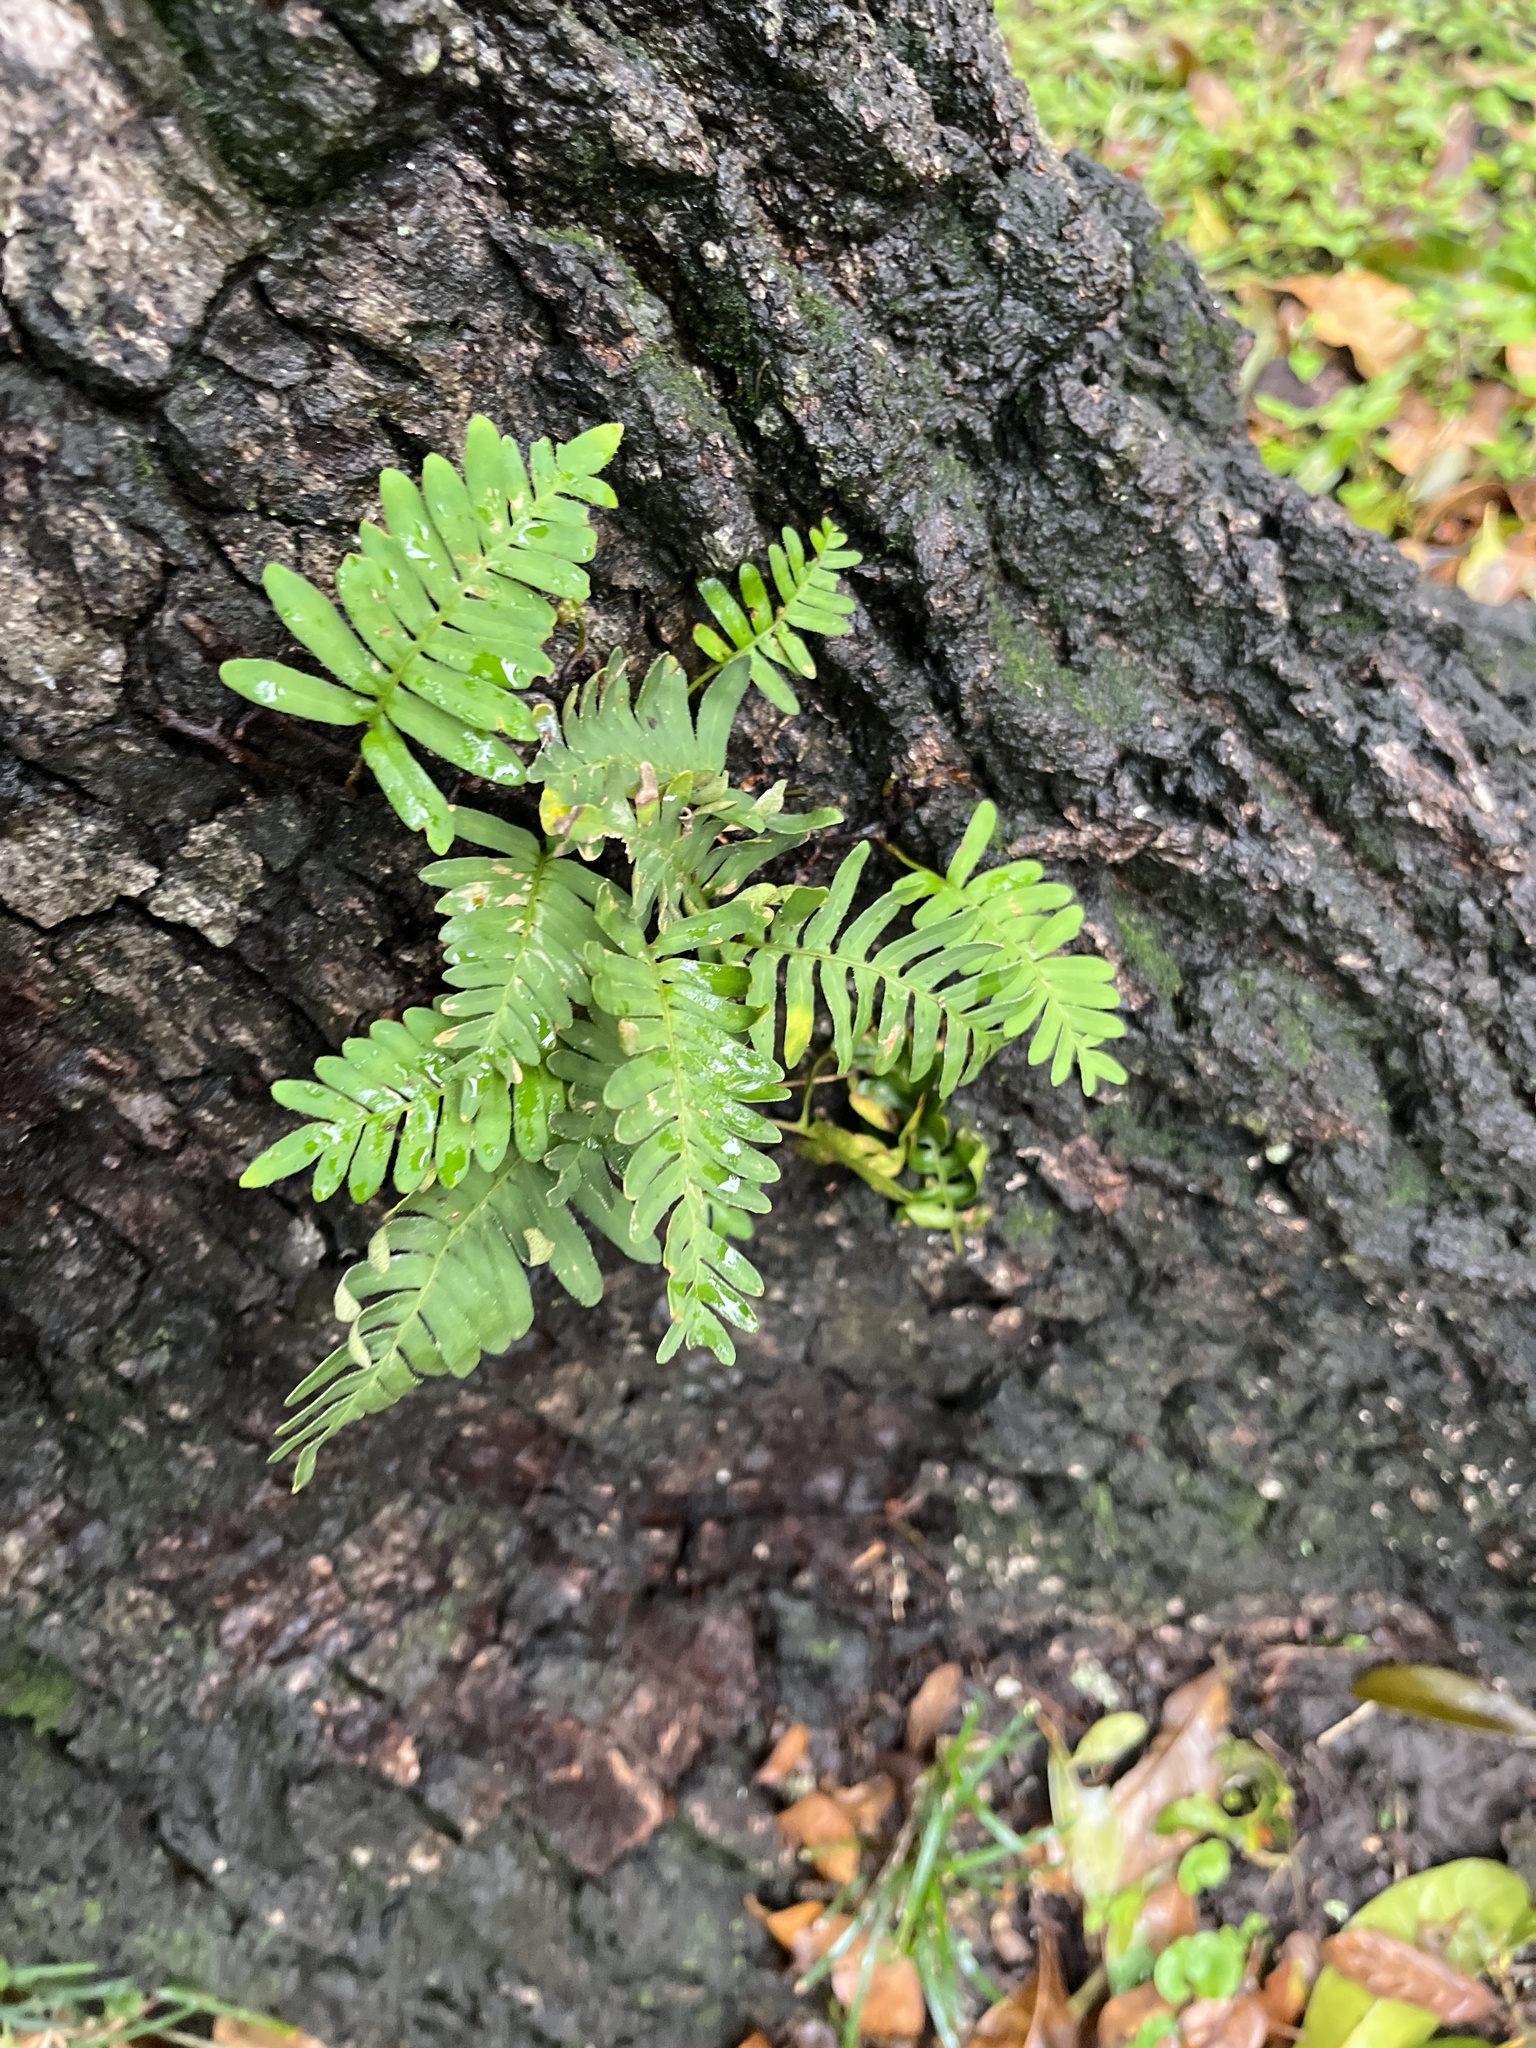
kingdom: Plantae
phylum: Tracheophyta
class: Polypodiopsida
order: Polypodiales
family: Polypodiaceae
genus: Pleopeltis
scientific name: Pleopeltis michauxiana
